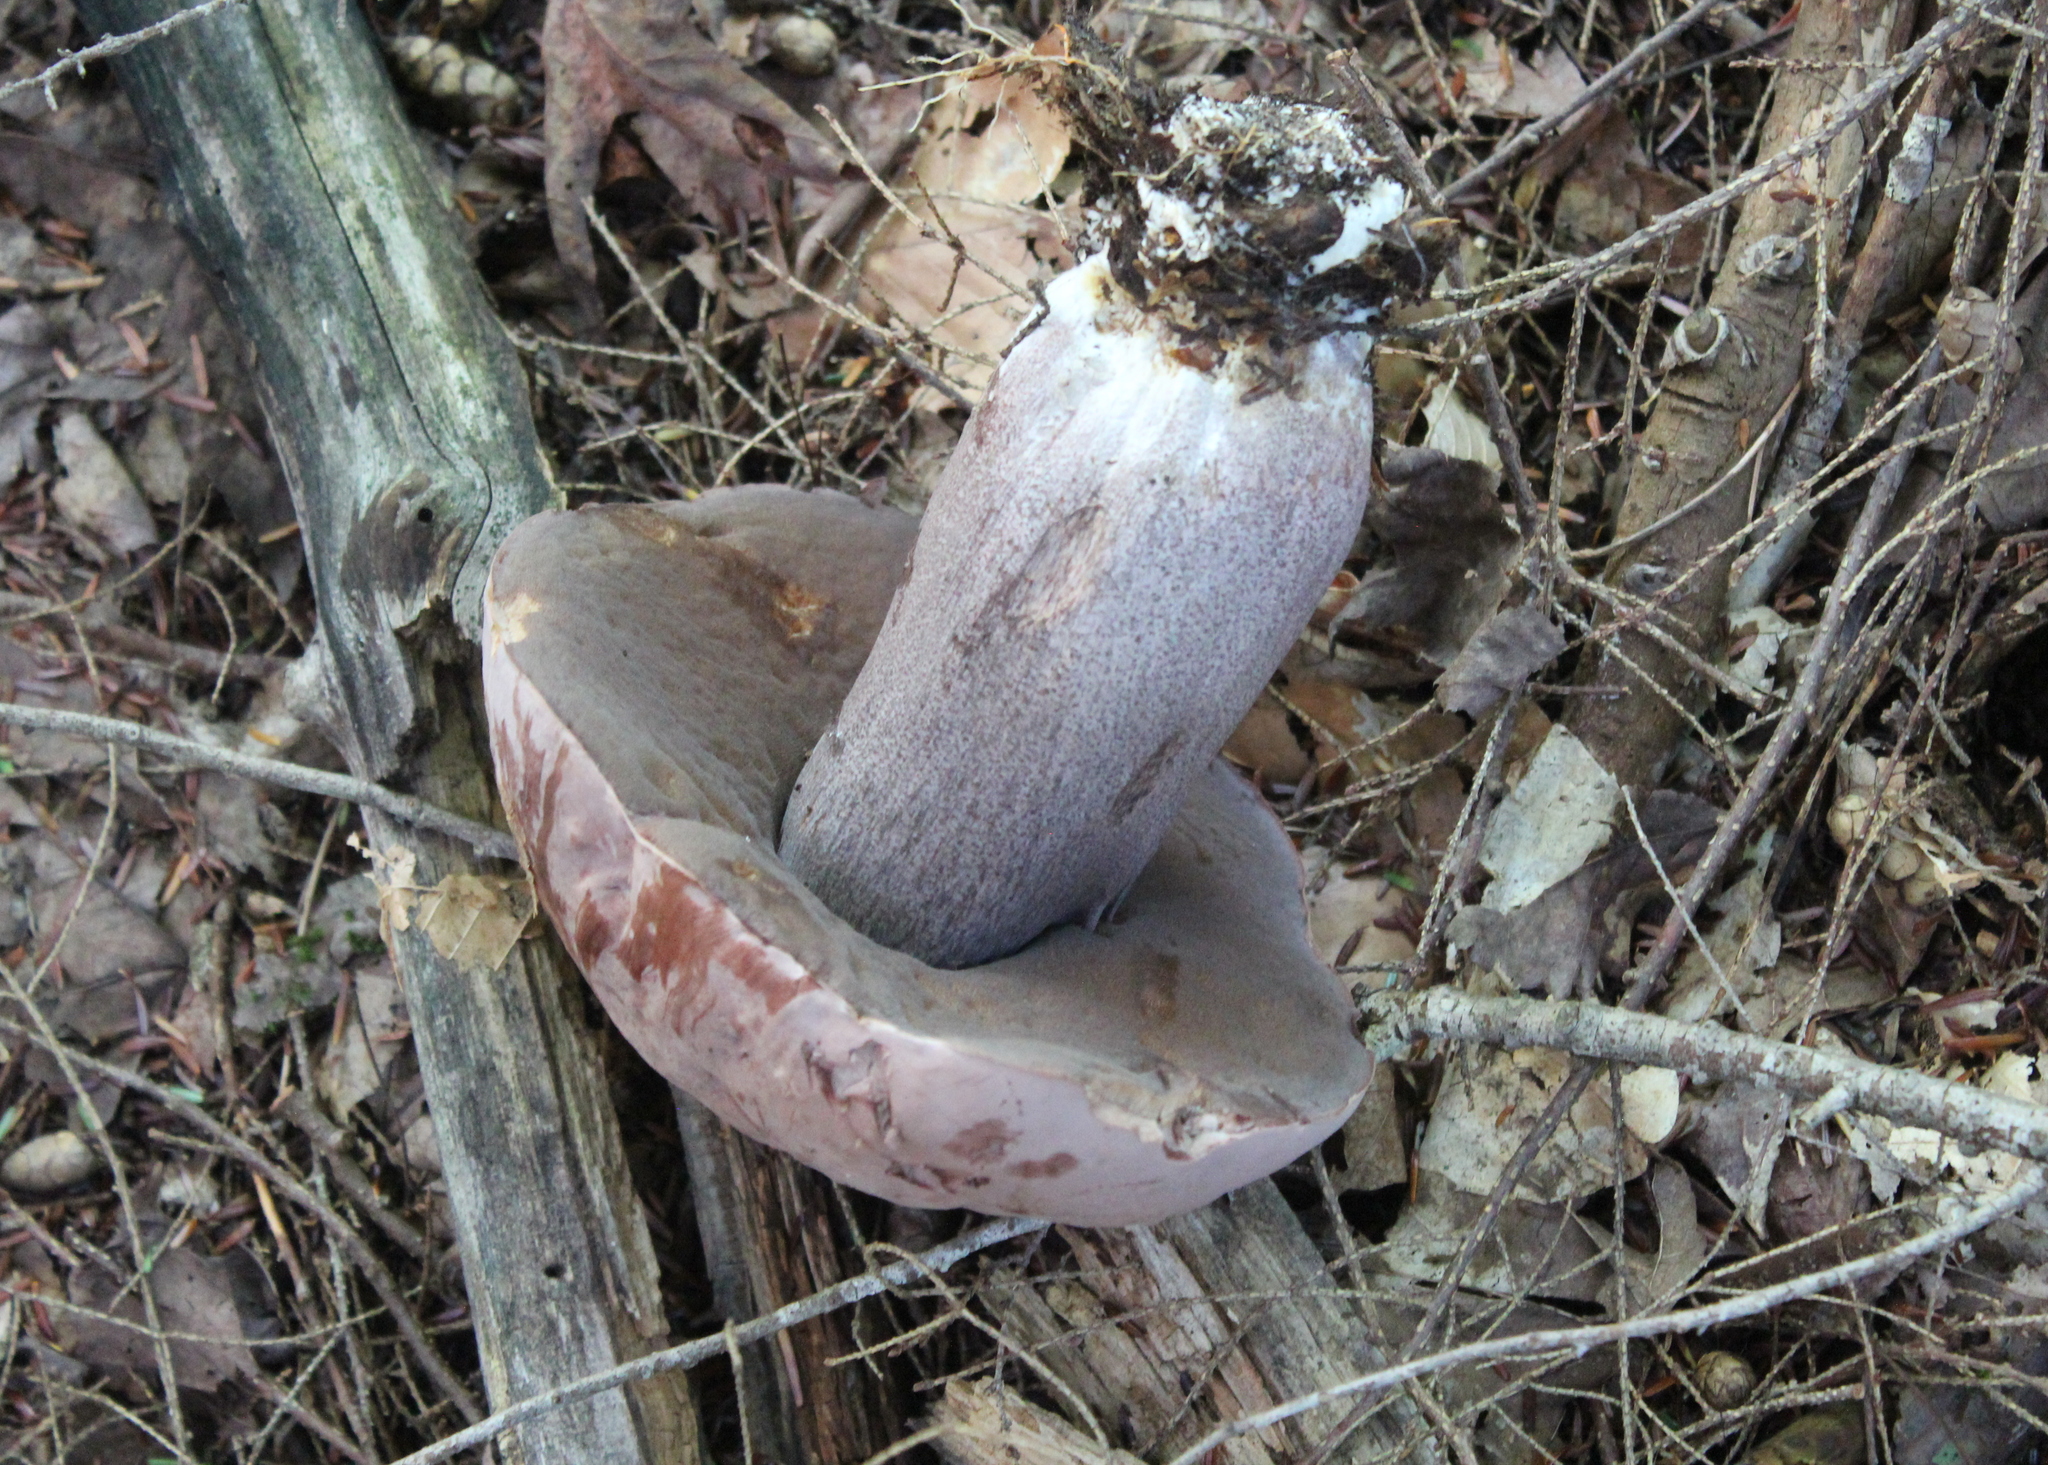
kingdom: Fungi
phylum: Basidiomycota
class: Agaricomycetes
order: Boletales
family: Boletaceae
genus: Sutorius
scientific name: Sutorius eximius
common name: Lilac-brown bolete
